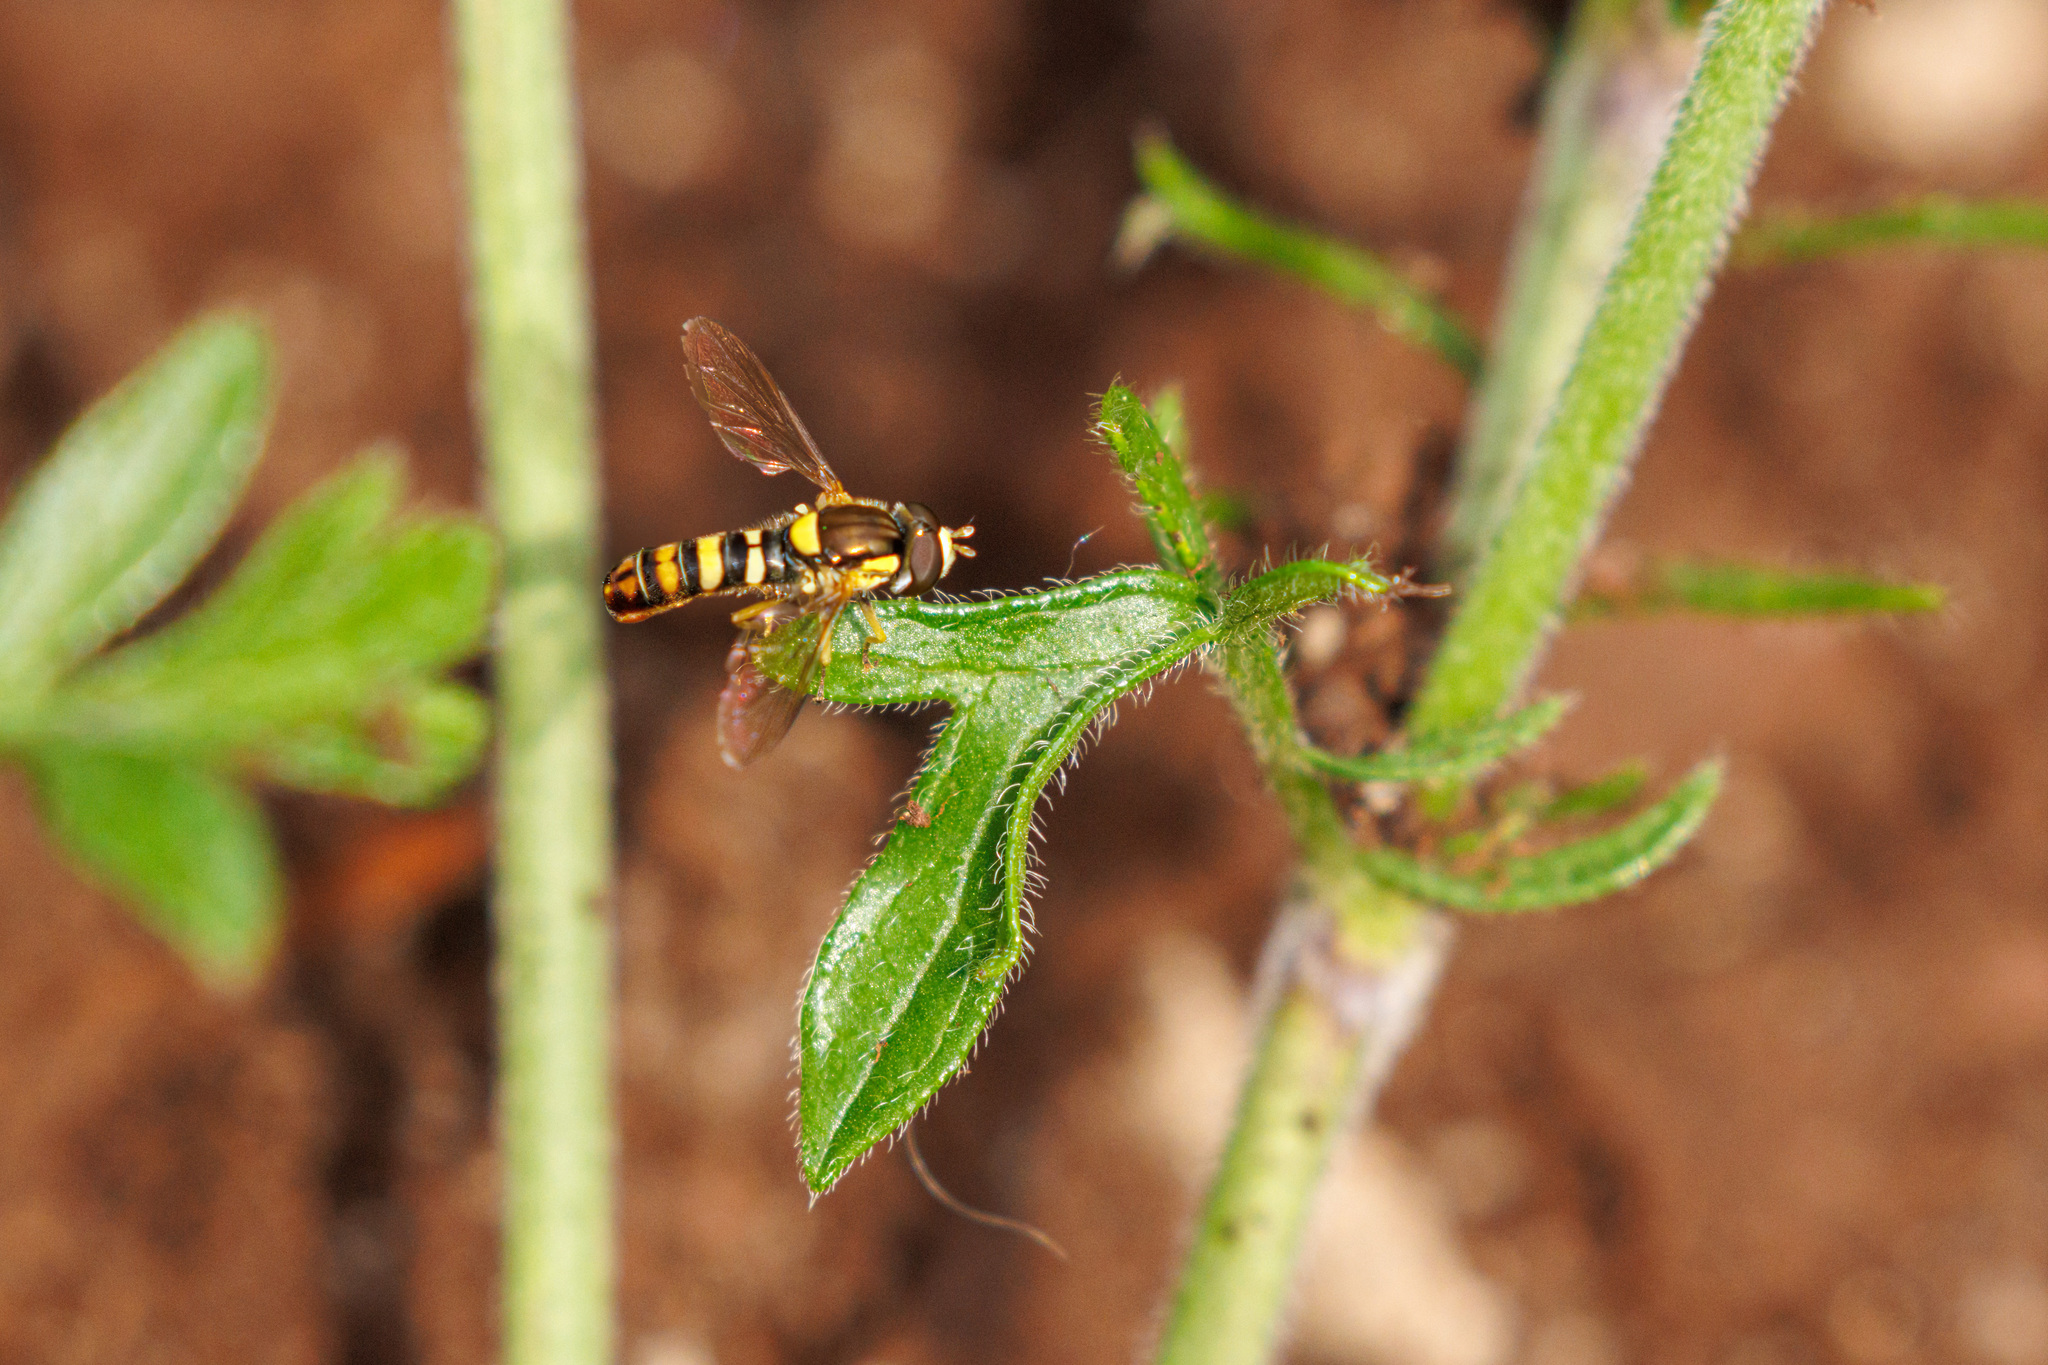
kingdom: Animalia
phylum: Arthropoda
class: Insecta
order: Diptera
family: Syrphidae
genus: Sphaerophoria
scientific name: Sphaerophoria sulphuripes
